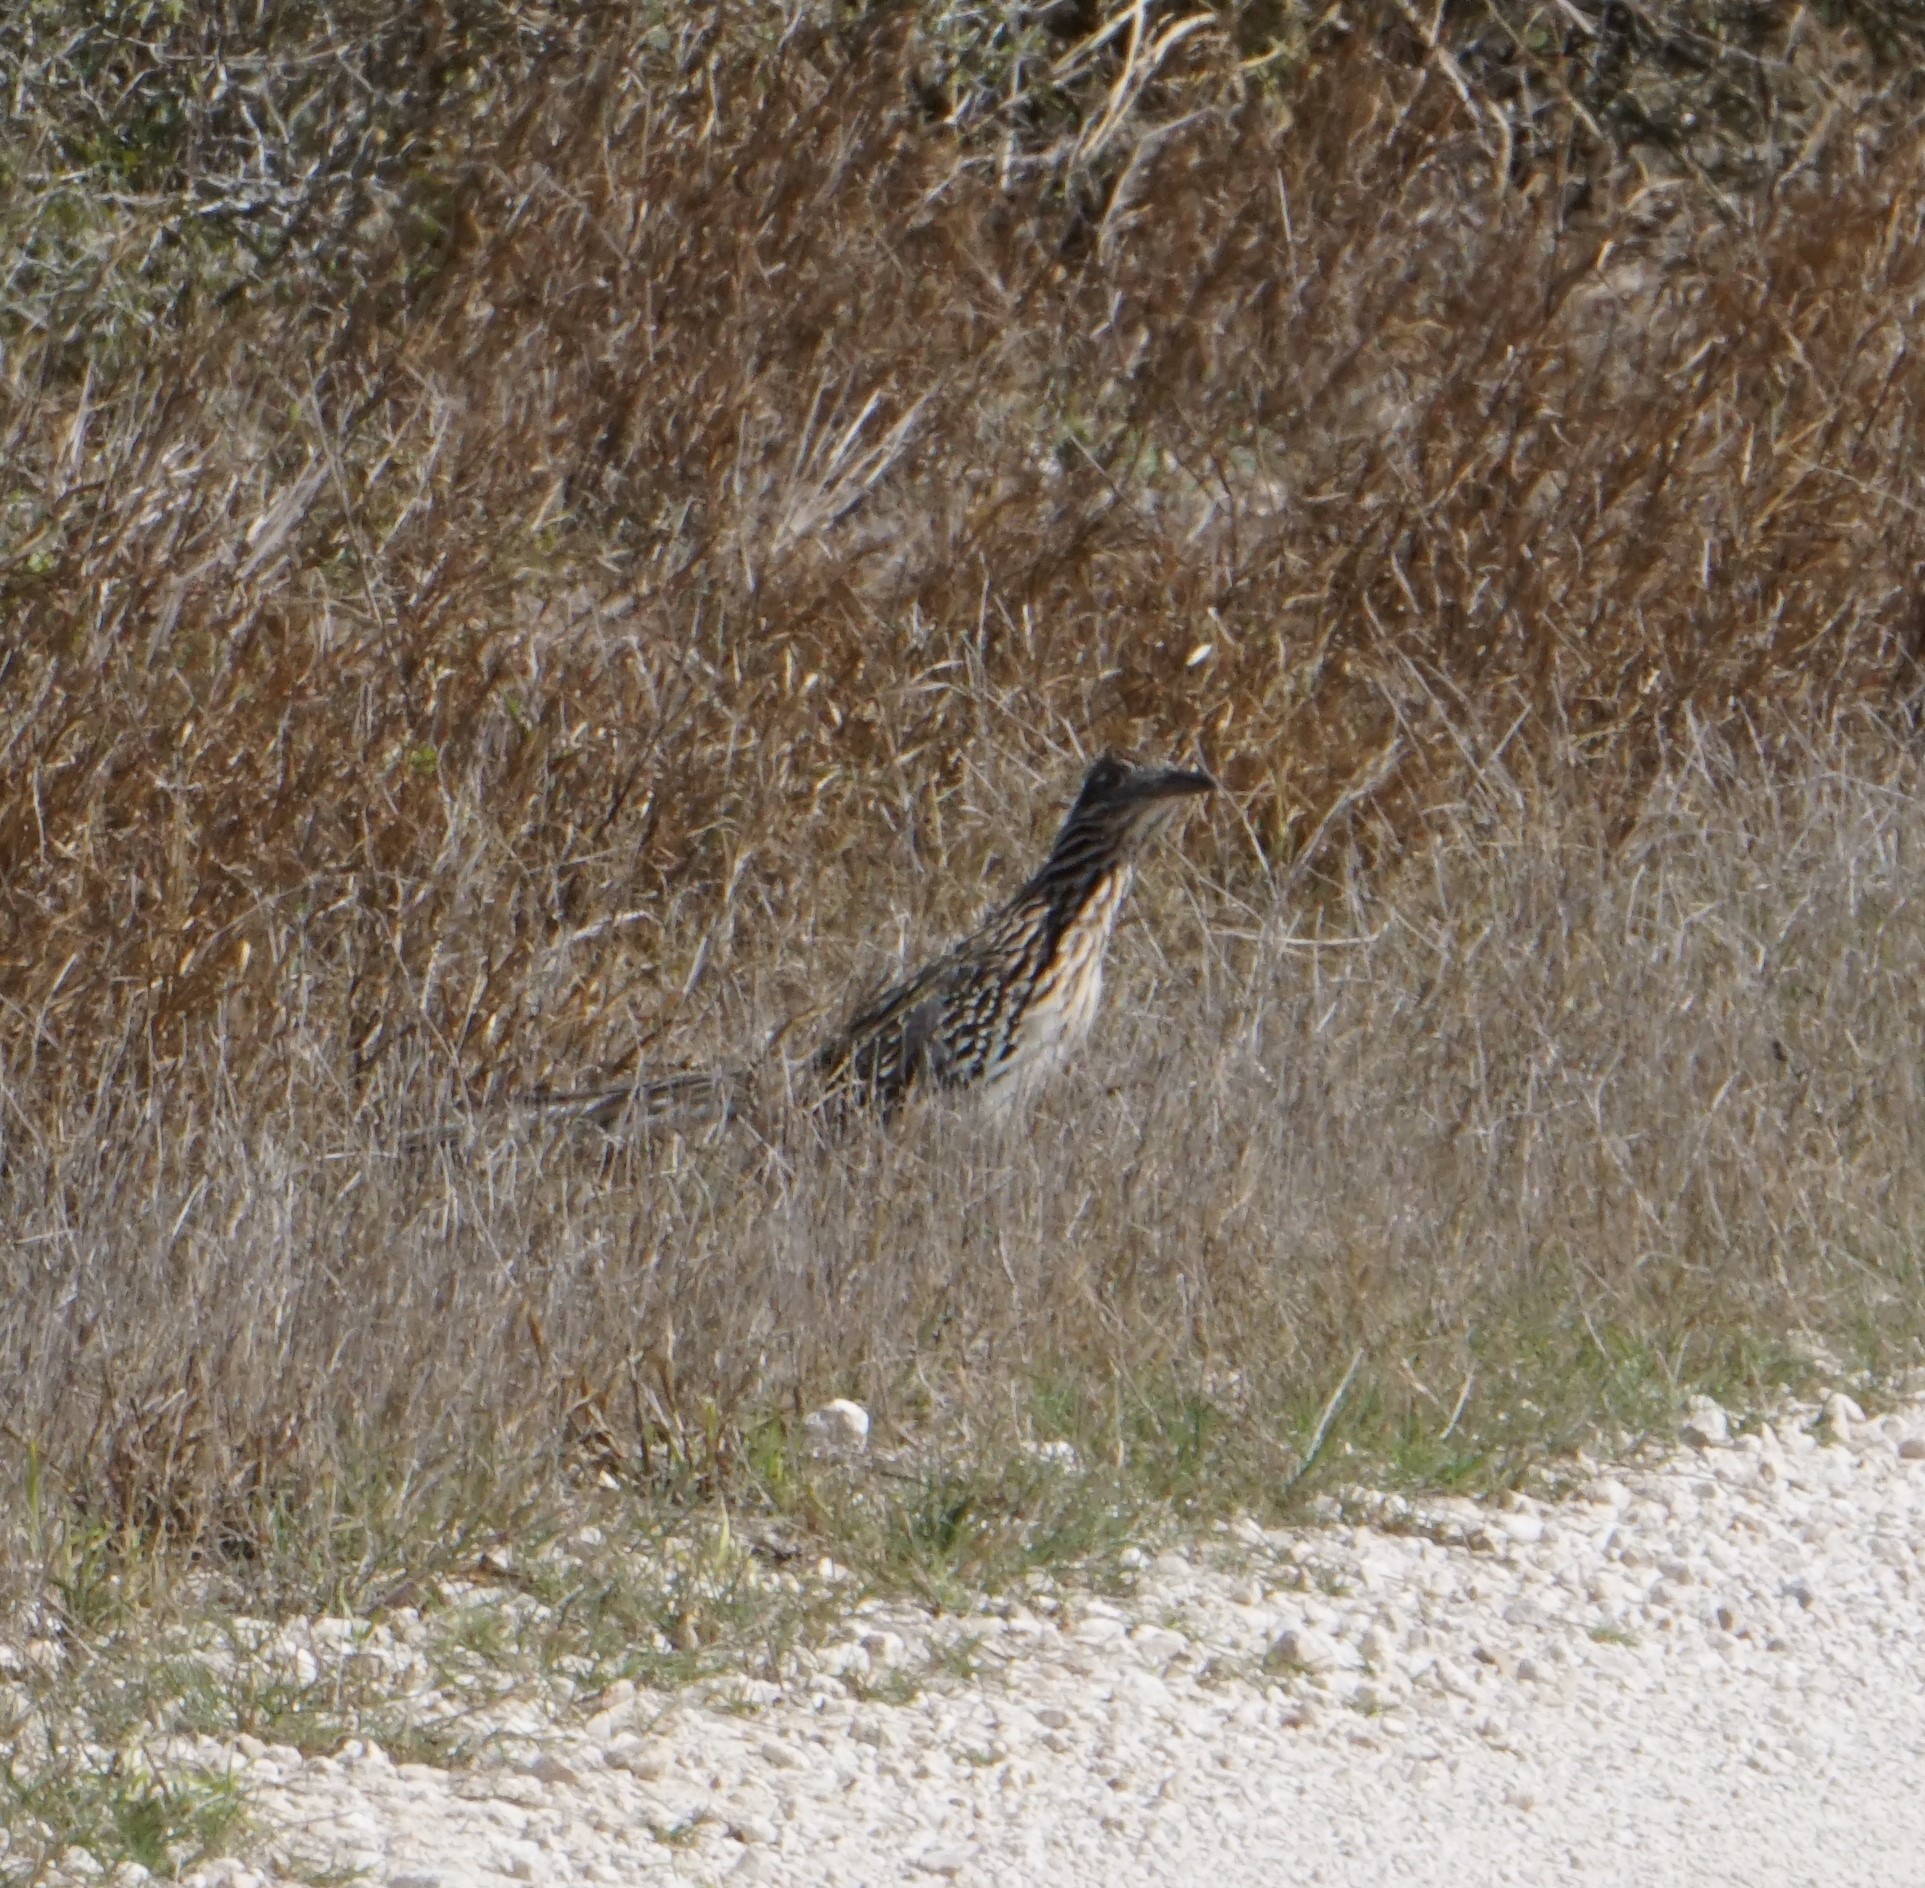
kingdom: Animalia
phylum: Chordata
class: Aves
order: Cuculiformes
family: Cuculidae
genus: Geococcyx
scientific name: Geococcyx californianus
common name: Greater roadrunner
